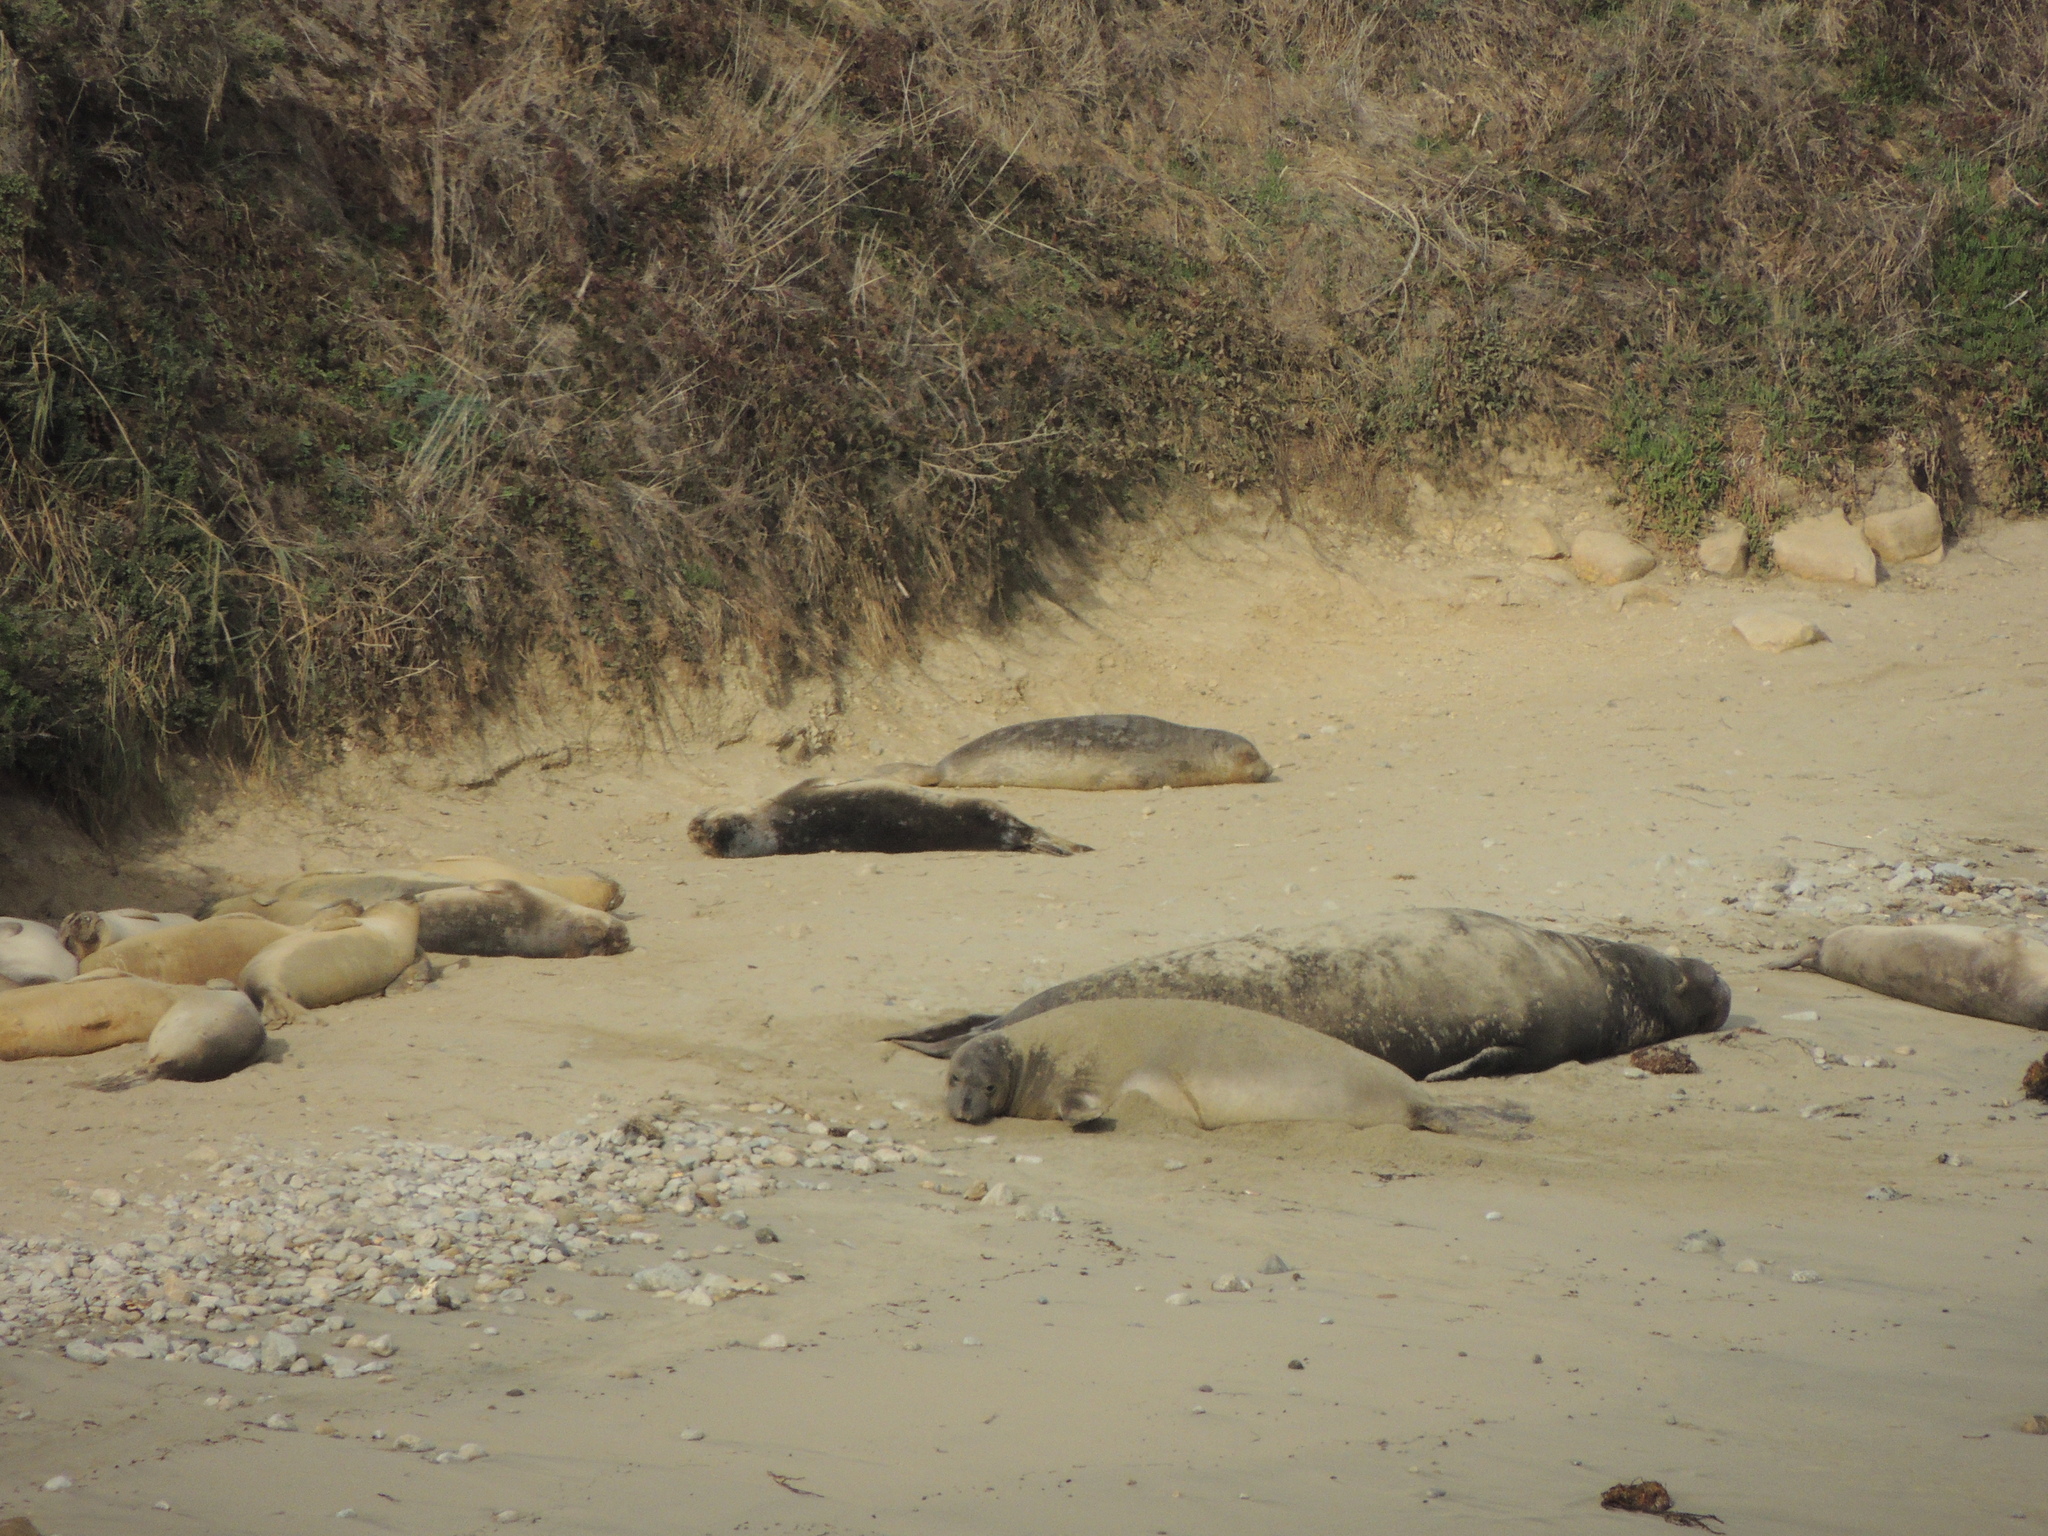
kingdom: Animalia
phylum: Chordata
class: Mammalia
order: Carnivora
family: Phocidae
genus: Mirounga
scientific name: Mirounga angustirostris
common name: Northern elephant seal
